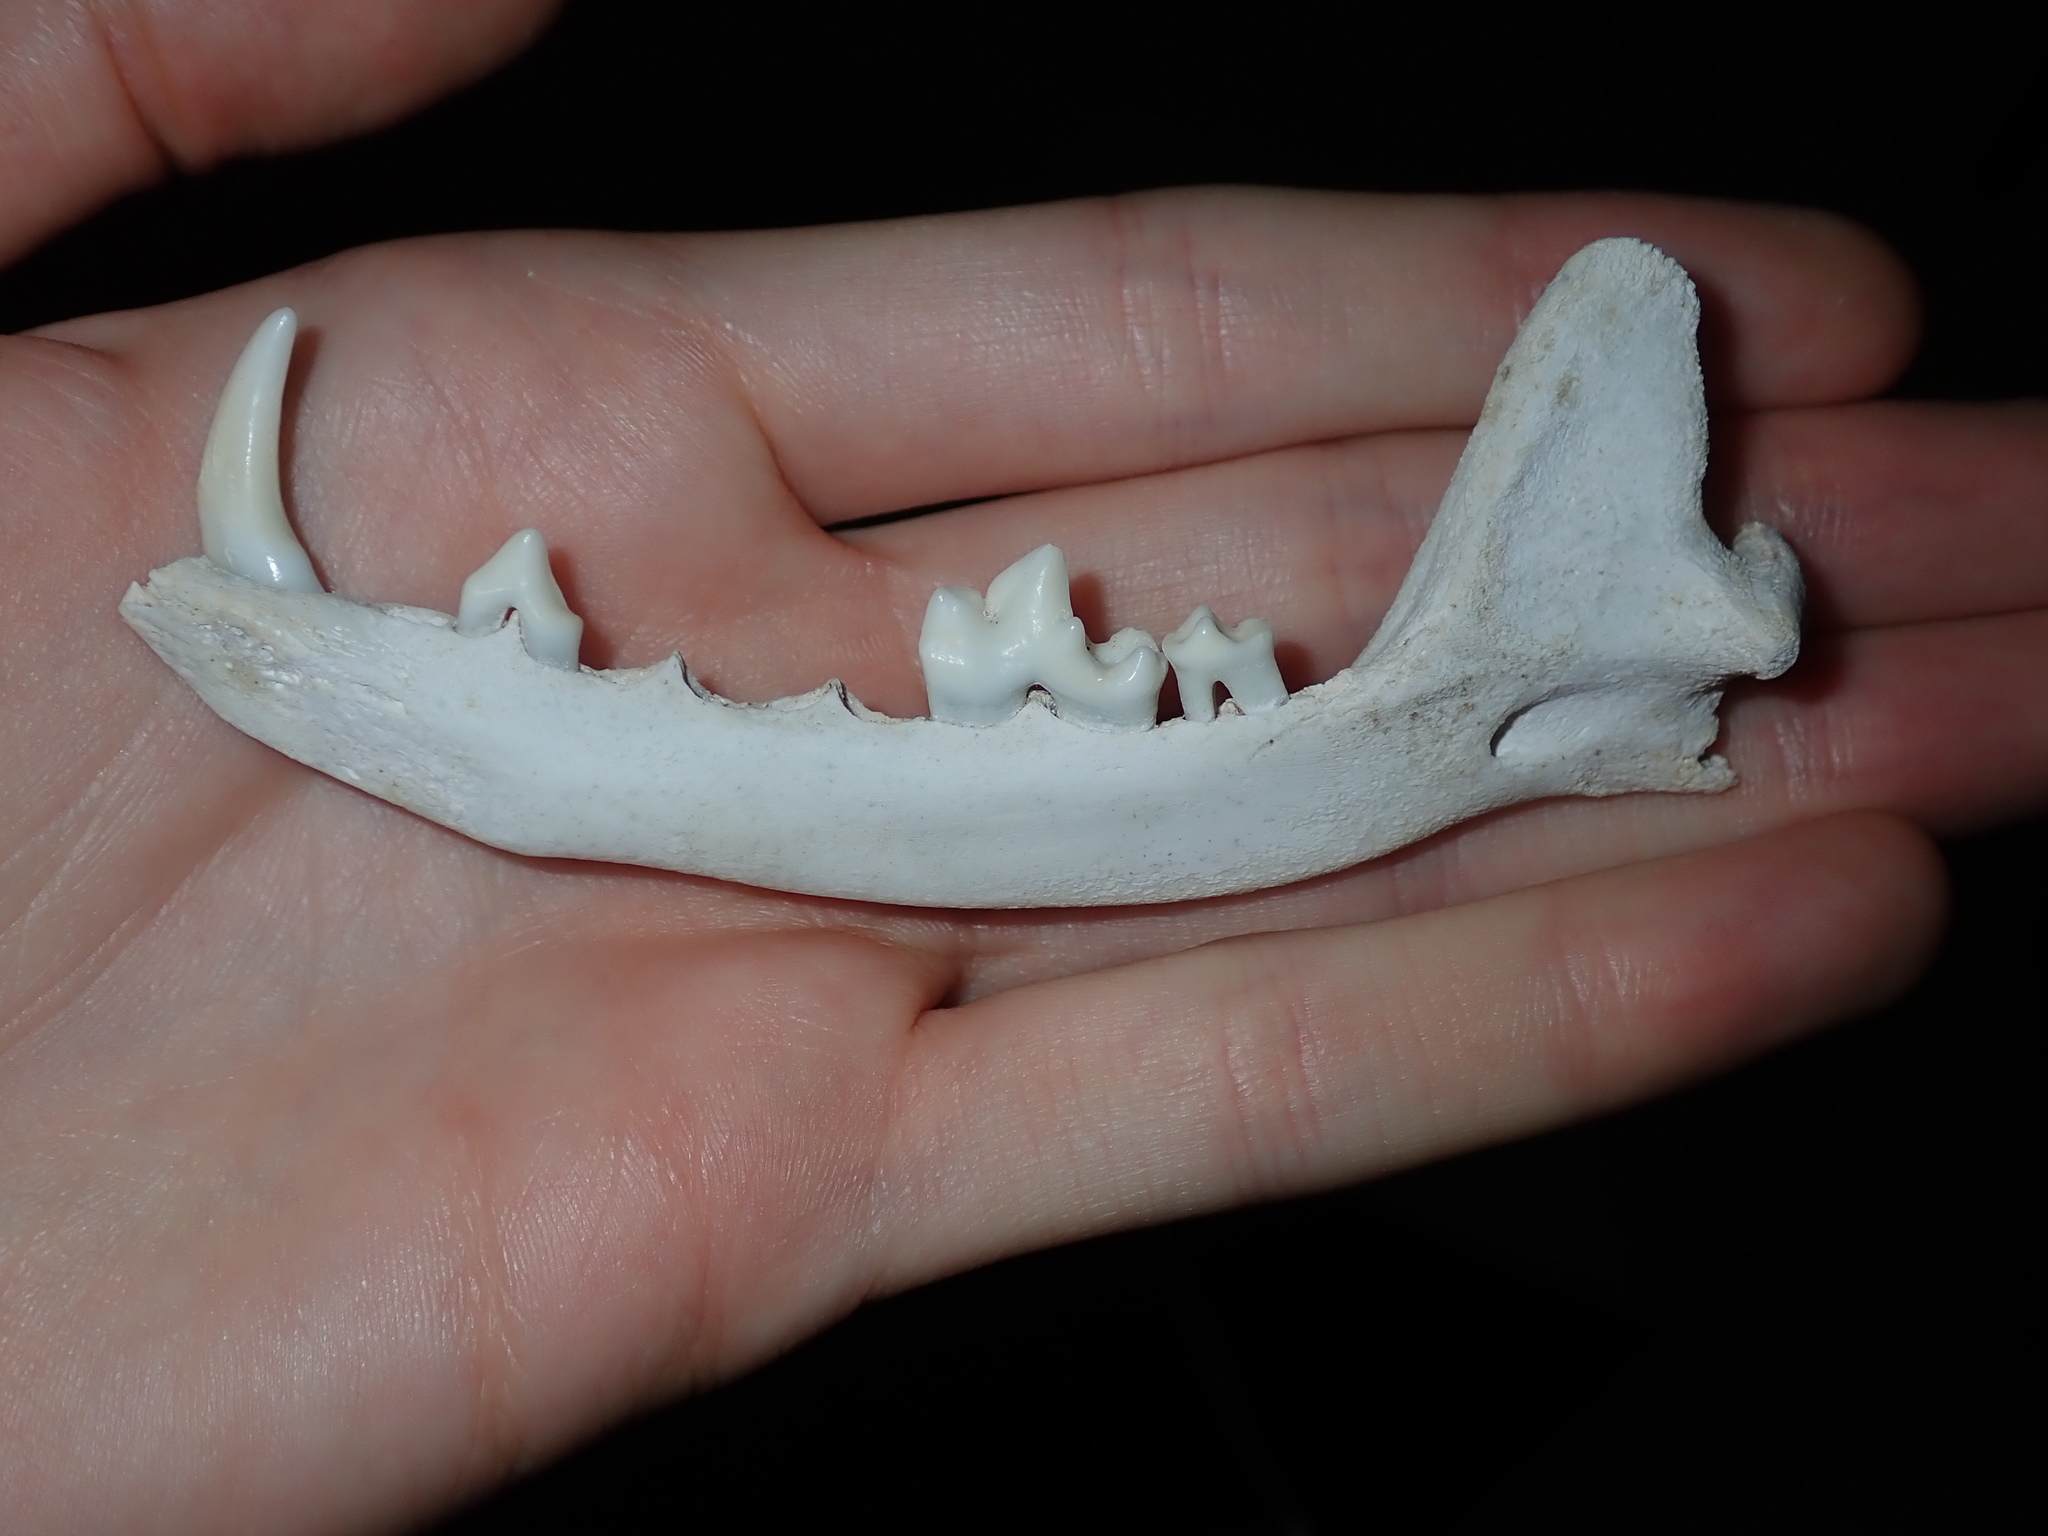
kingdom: Animalia
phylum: Chordata
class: Mammalia
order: Carnivora
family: Canidae
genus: Vulpes
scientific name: Vulpes vulpes
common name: Red fox
